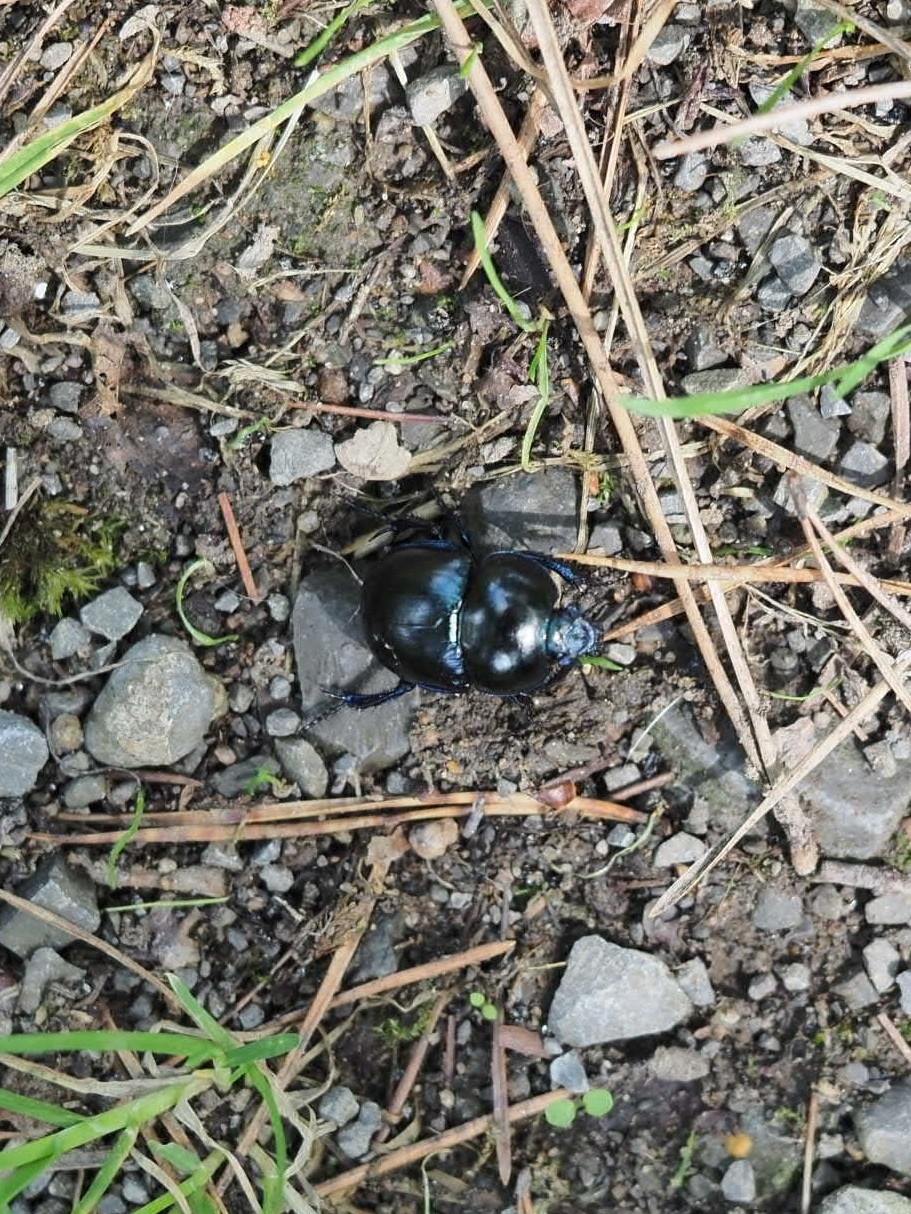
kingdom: Animalia
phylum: Arthropoda
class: Insecta
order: Coleoptera
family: Geotrupidae
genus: Trypocopris
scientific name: Trypocopris vernalis
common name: Spring dumbledor
